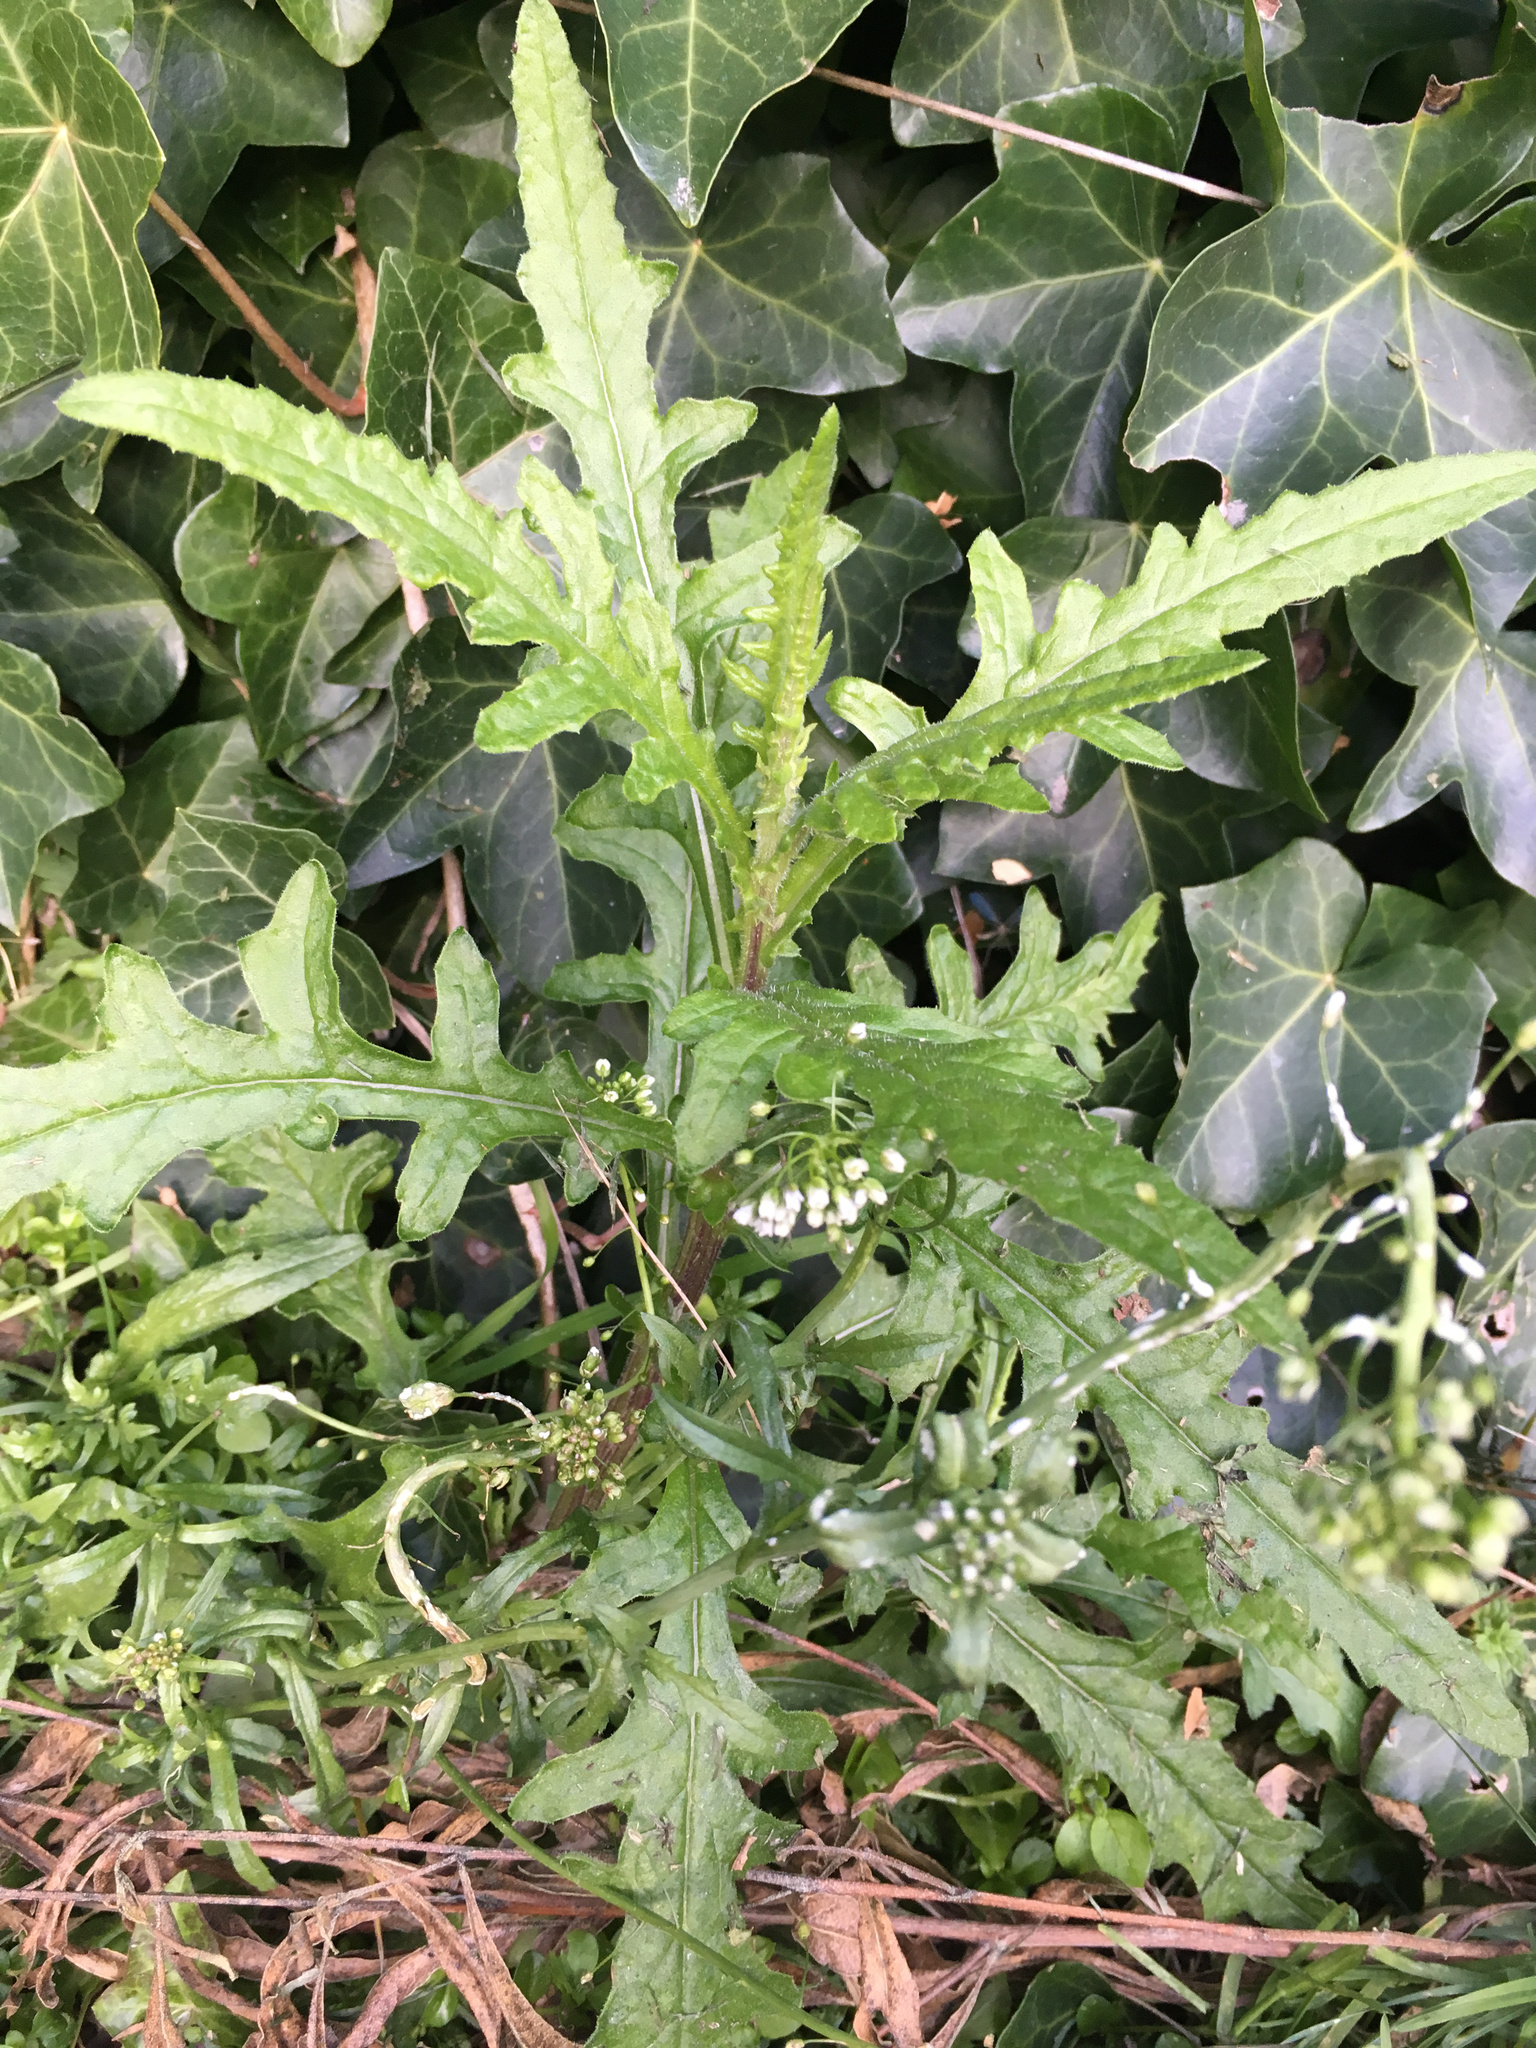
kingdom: Plantae
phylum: Tracheophyta
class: Magnoliopsida
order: Asterales
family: Asteraceae
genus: Senecio
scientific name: Senecio hispidulus
